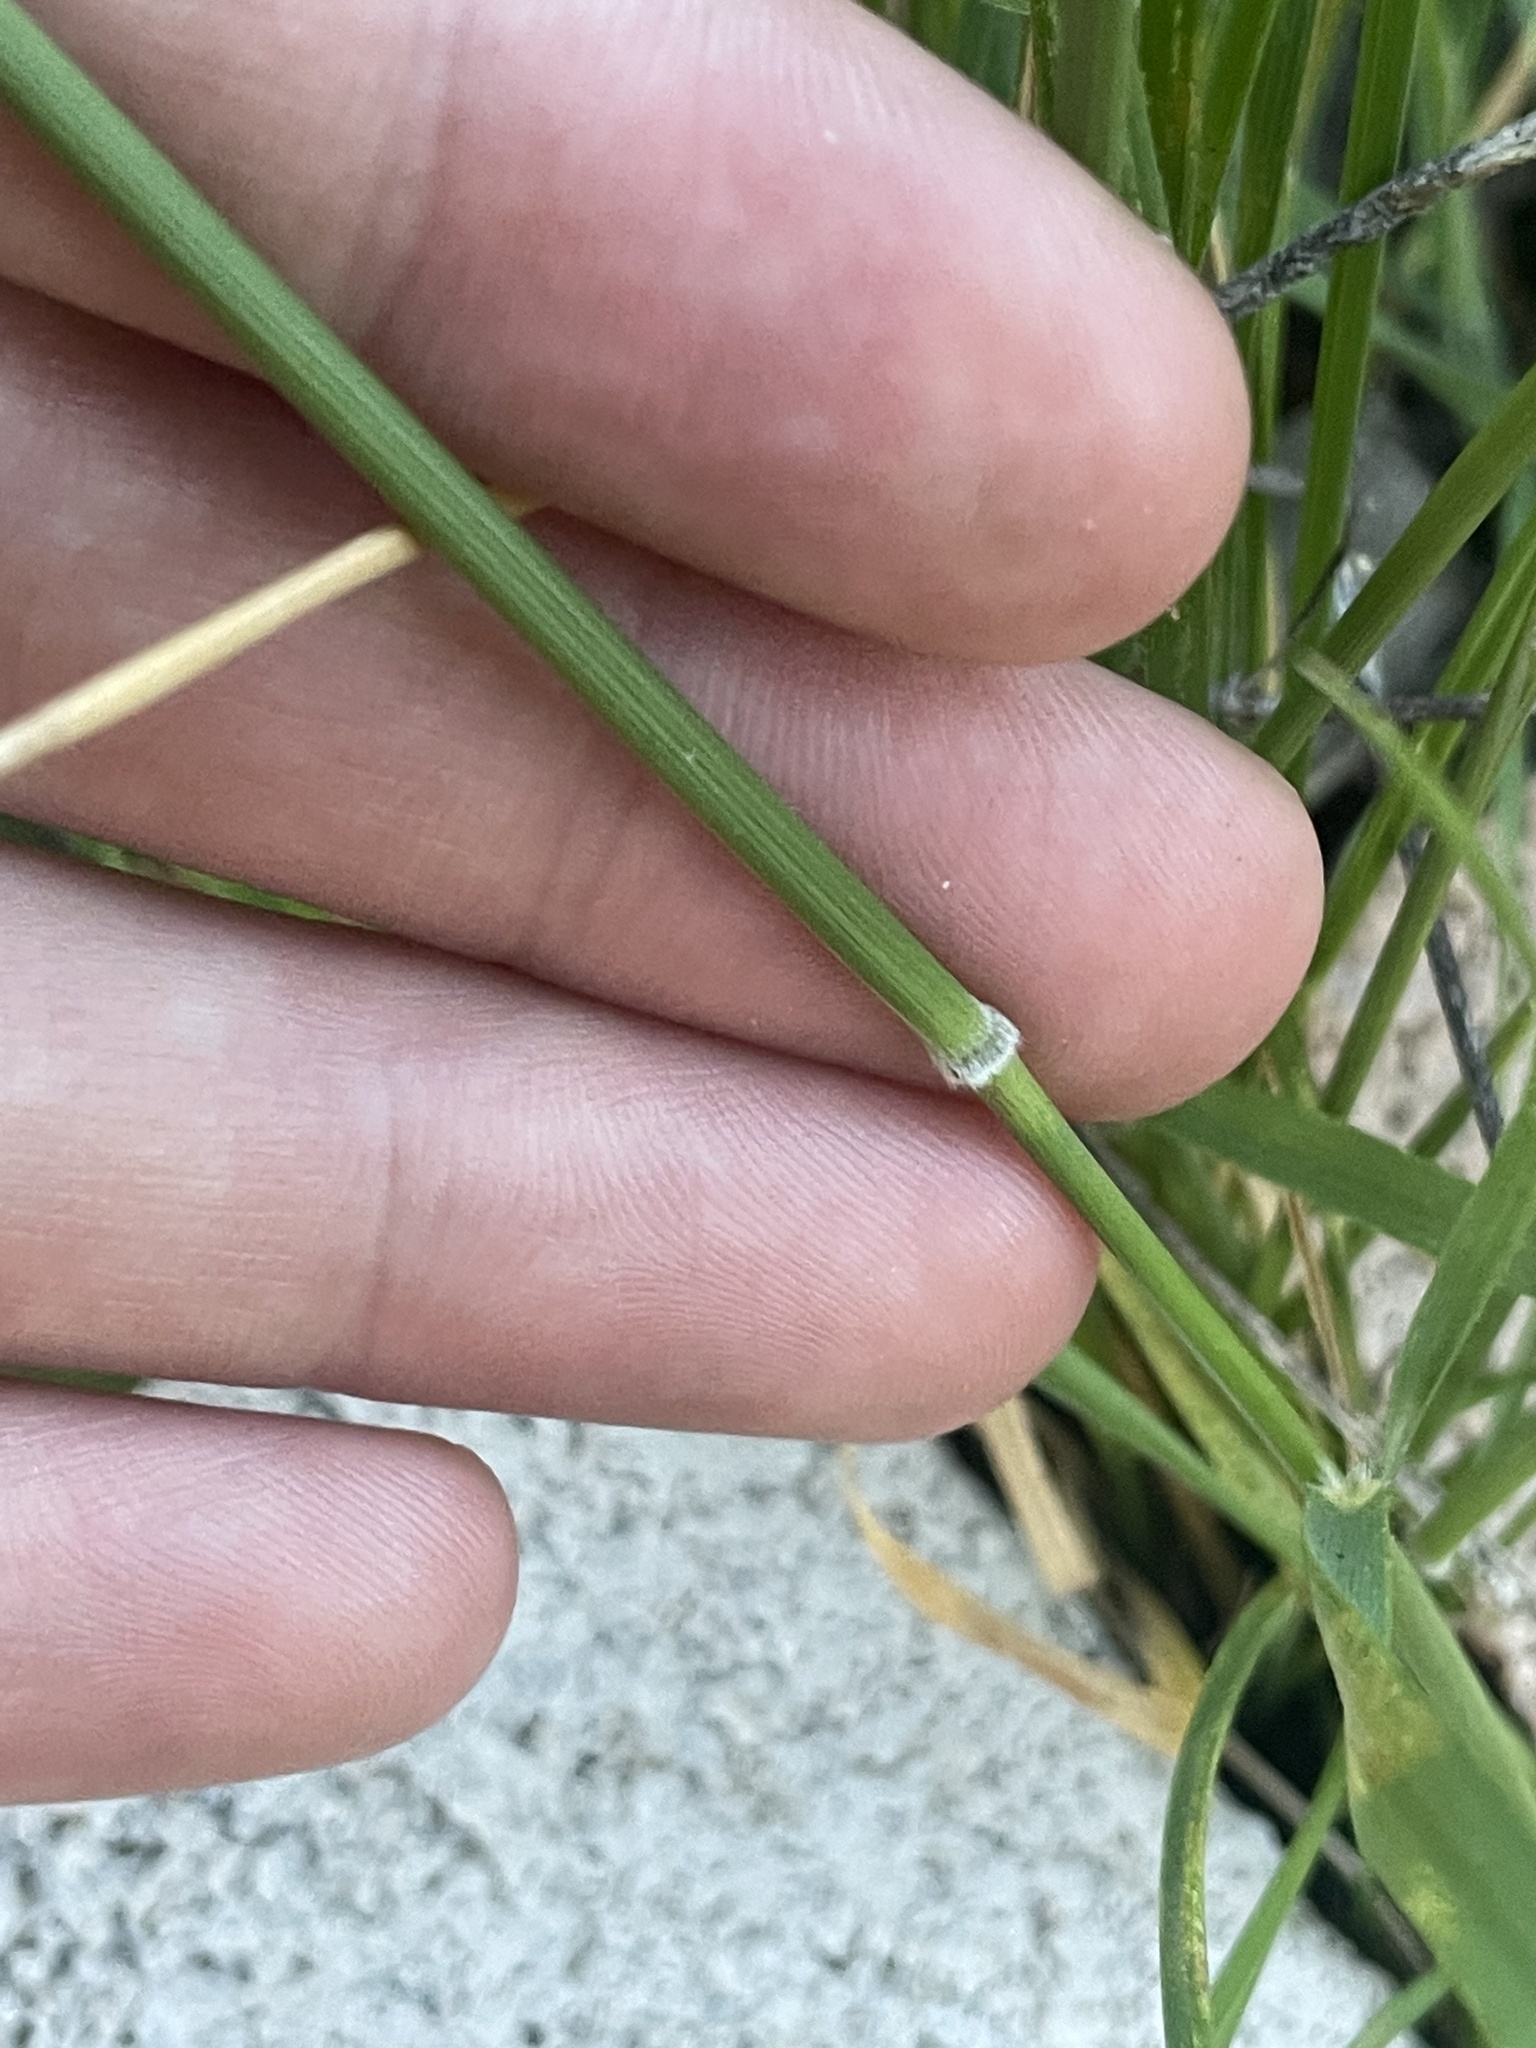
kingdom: Plantae
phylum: Tracheophyta
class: Liliopsida
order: Poales
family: Poaceae
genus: Nassella
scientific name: Nassella leucotricha
